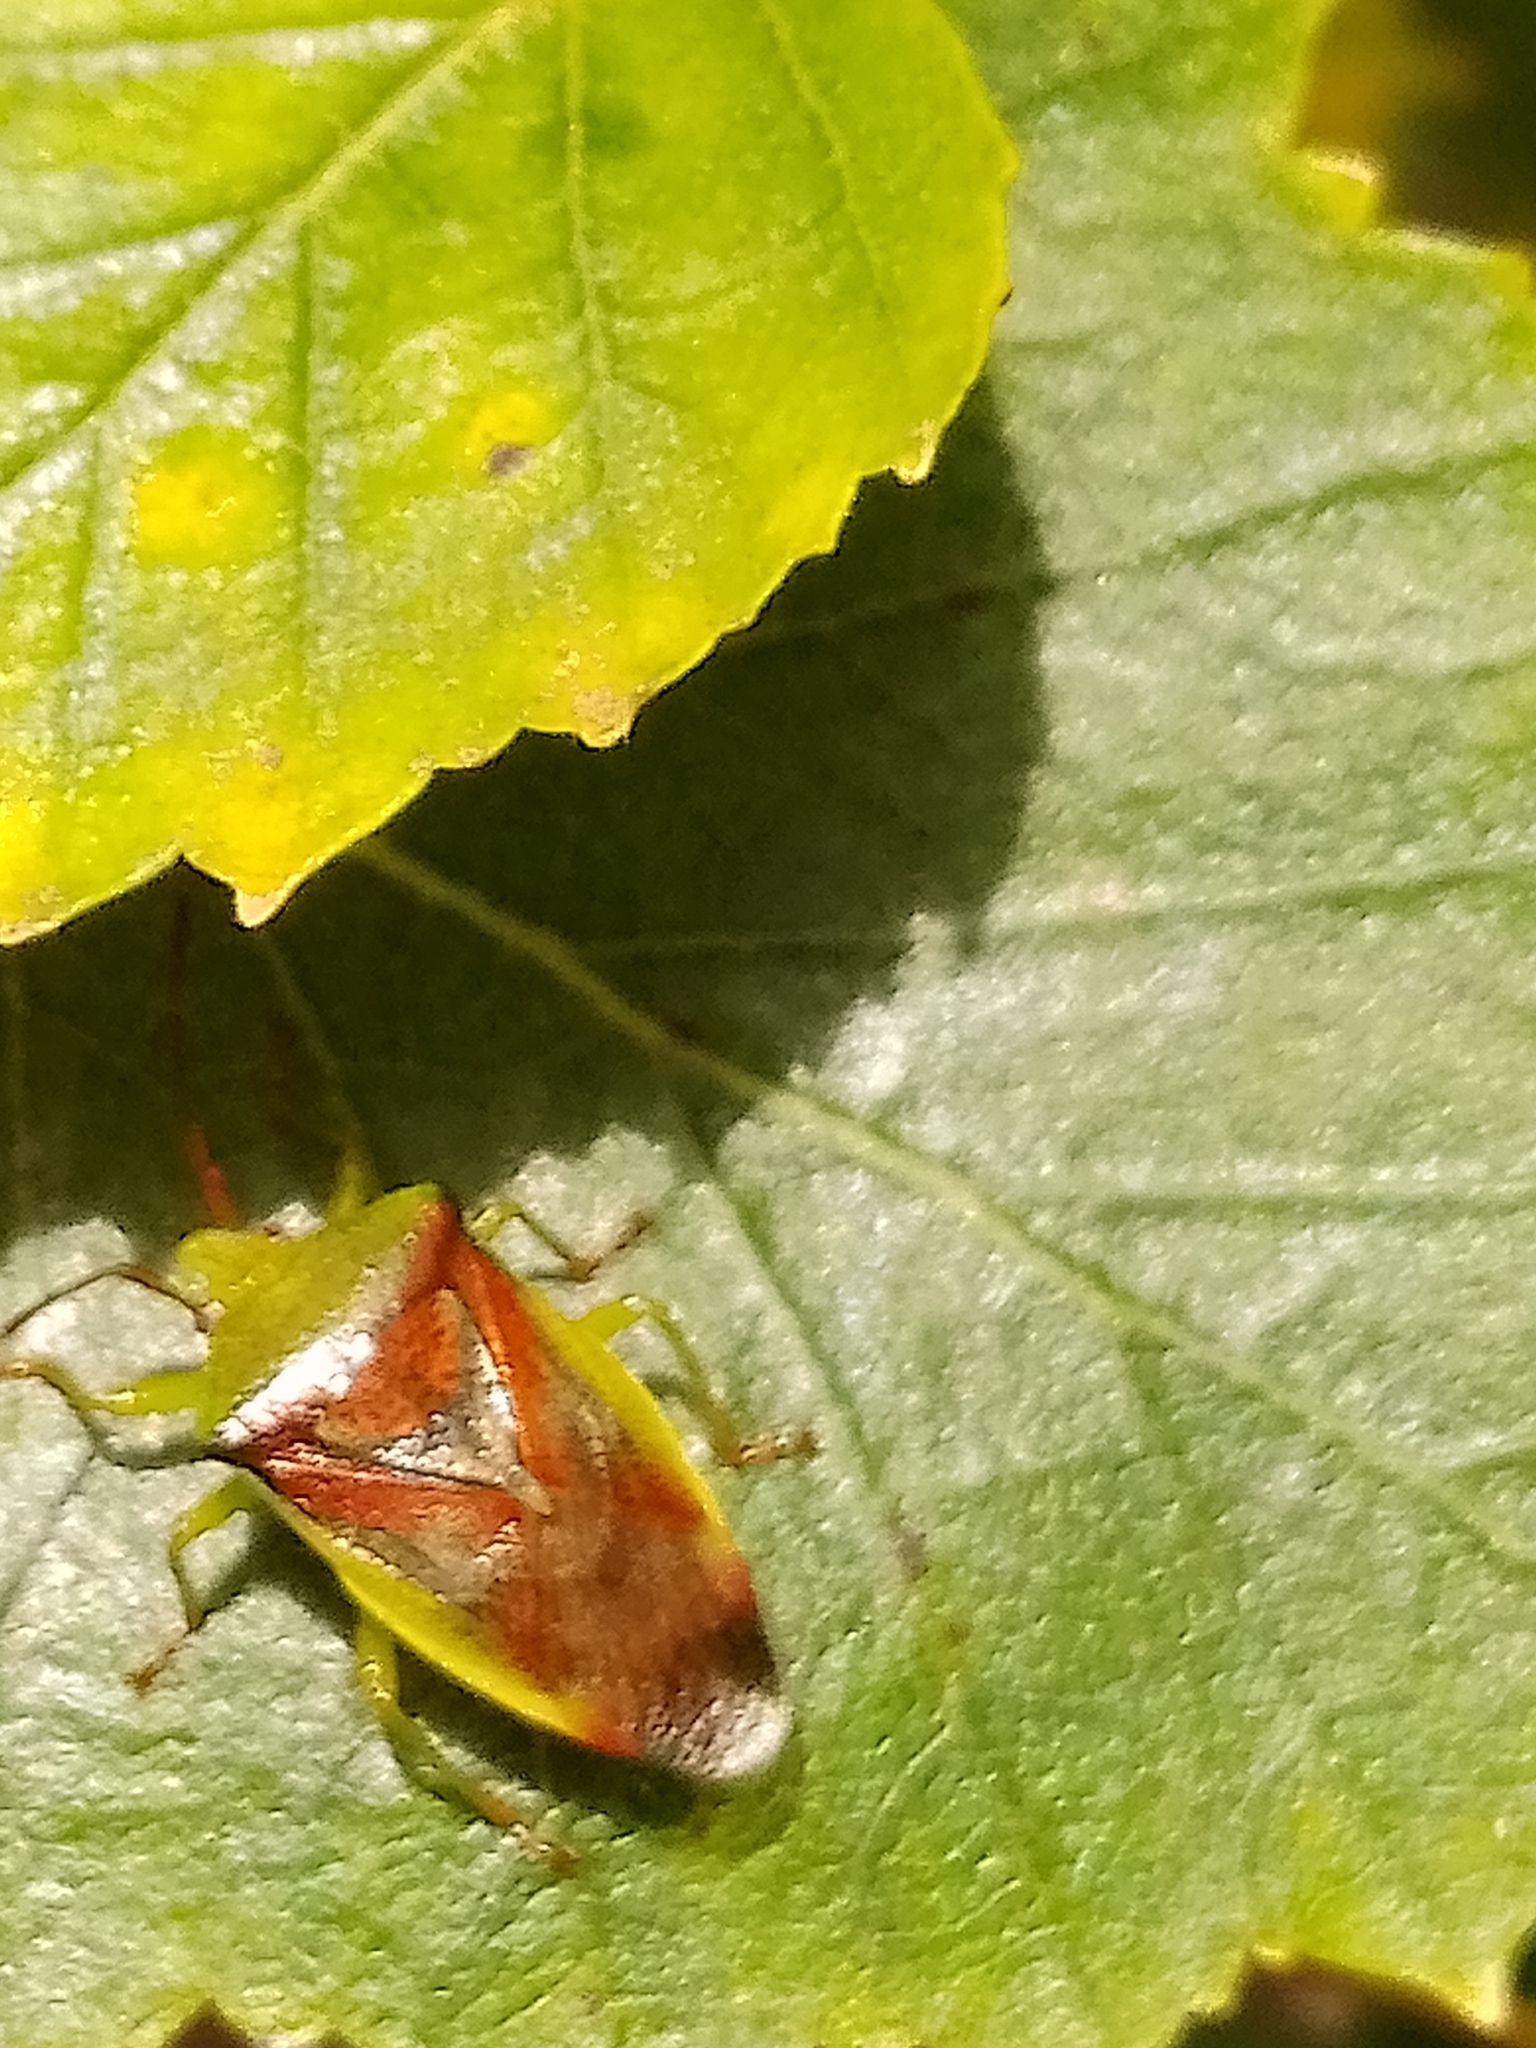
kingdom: Animalia
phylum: Arthropoda
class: Insecta
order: Hemiptera
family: Acanthosomatidae
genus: Elasmostethus
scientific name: Elasmostethus interstinctus
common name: Birch shieldbug
